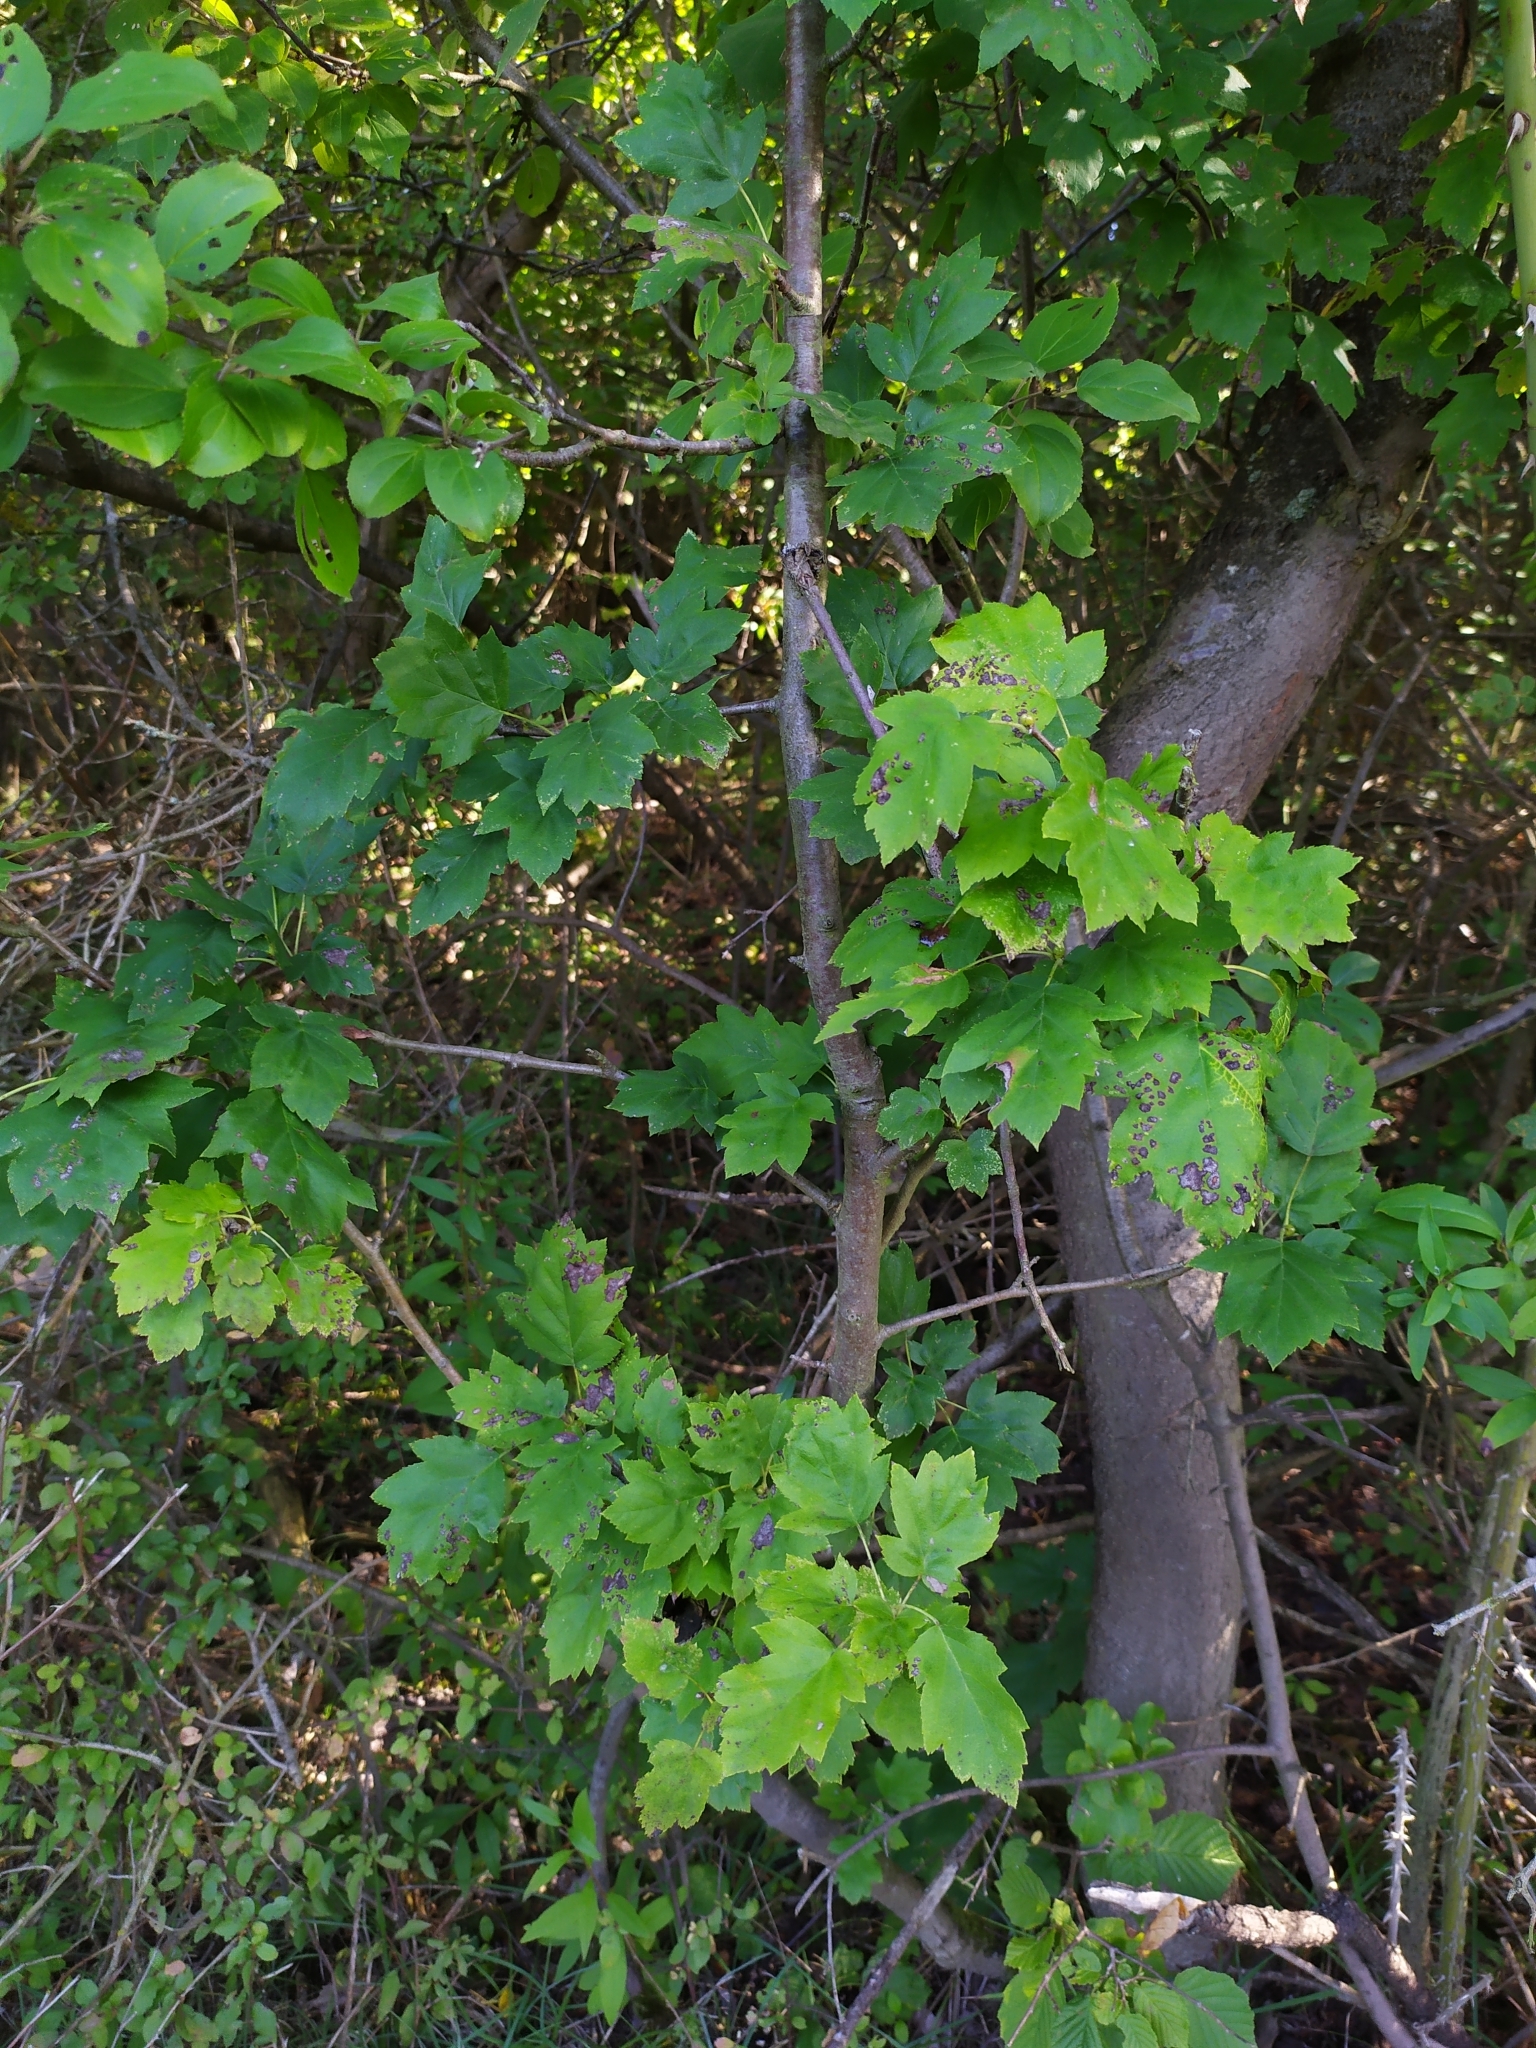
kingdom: Plantae
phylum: Tracheophyta
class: Magnoliopsida
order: Rosales
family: Rosaceae
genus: Torminalis
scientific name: Torminalis glaberrima
